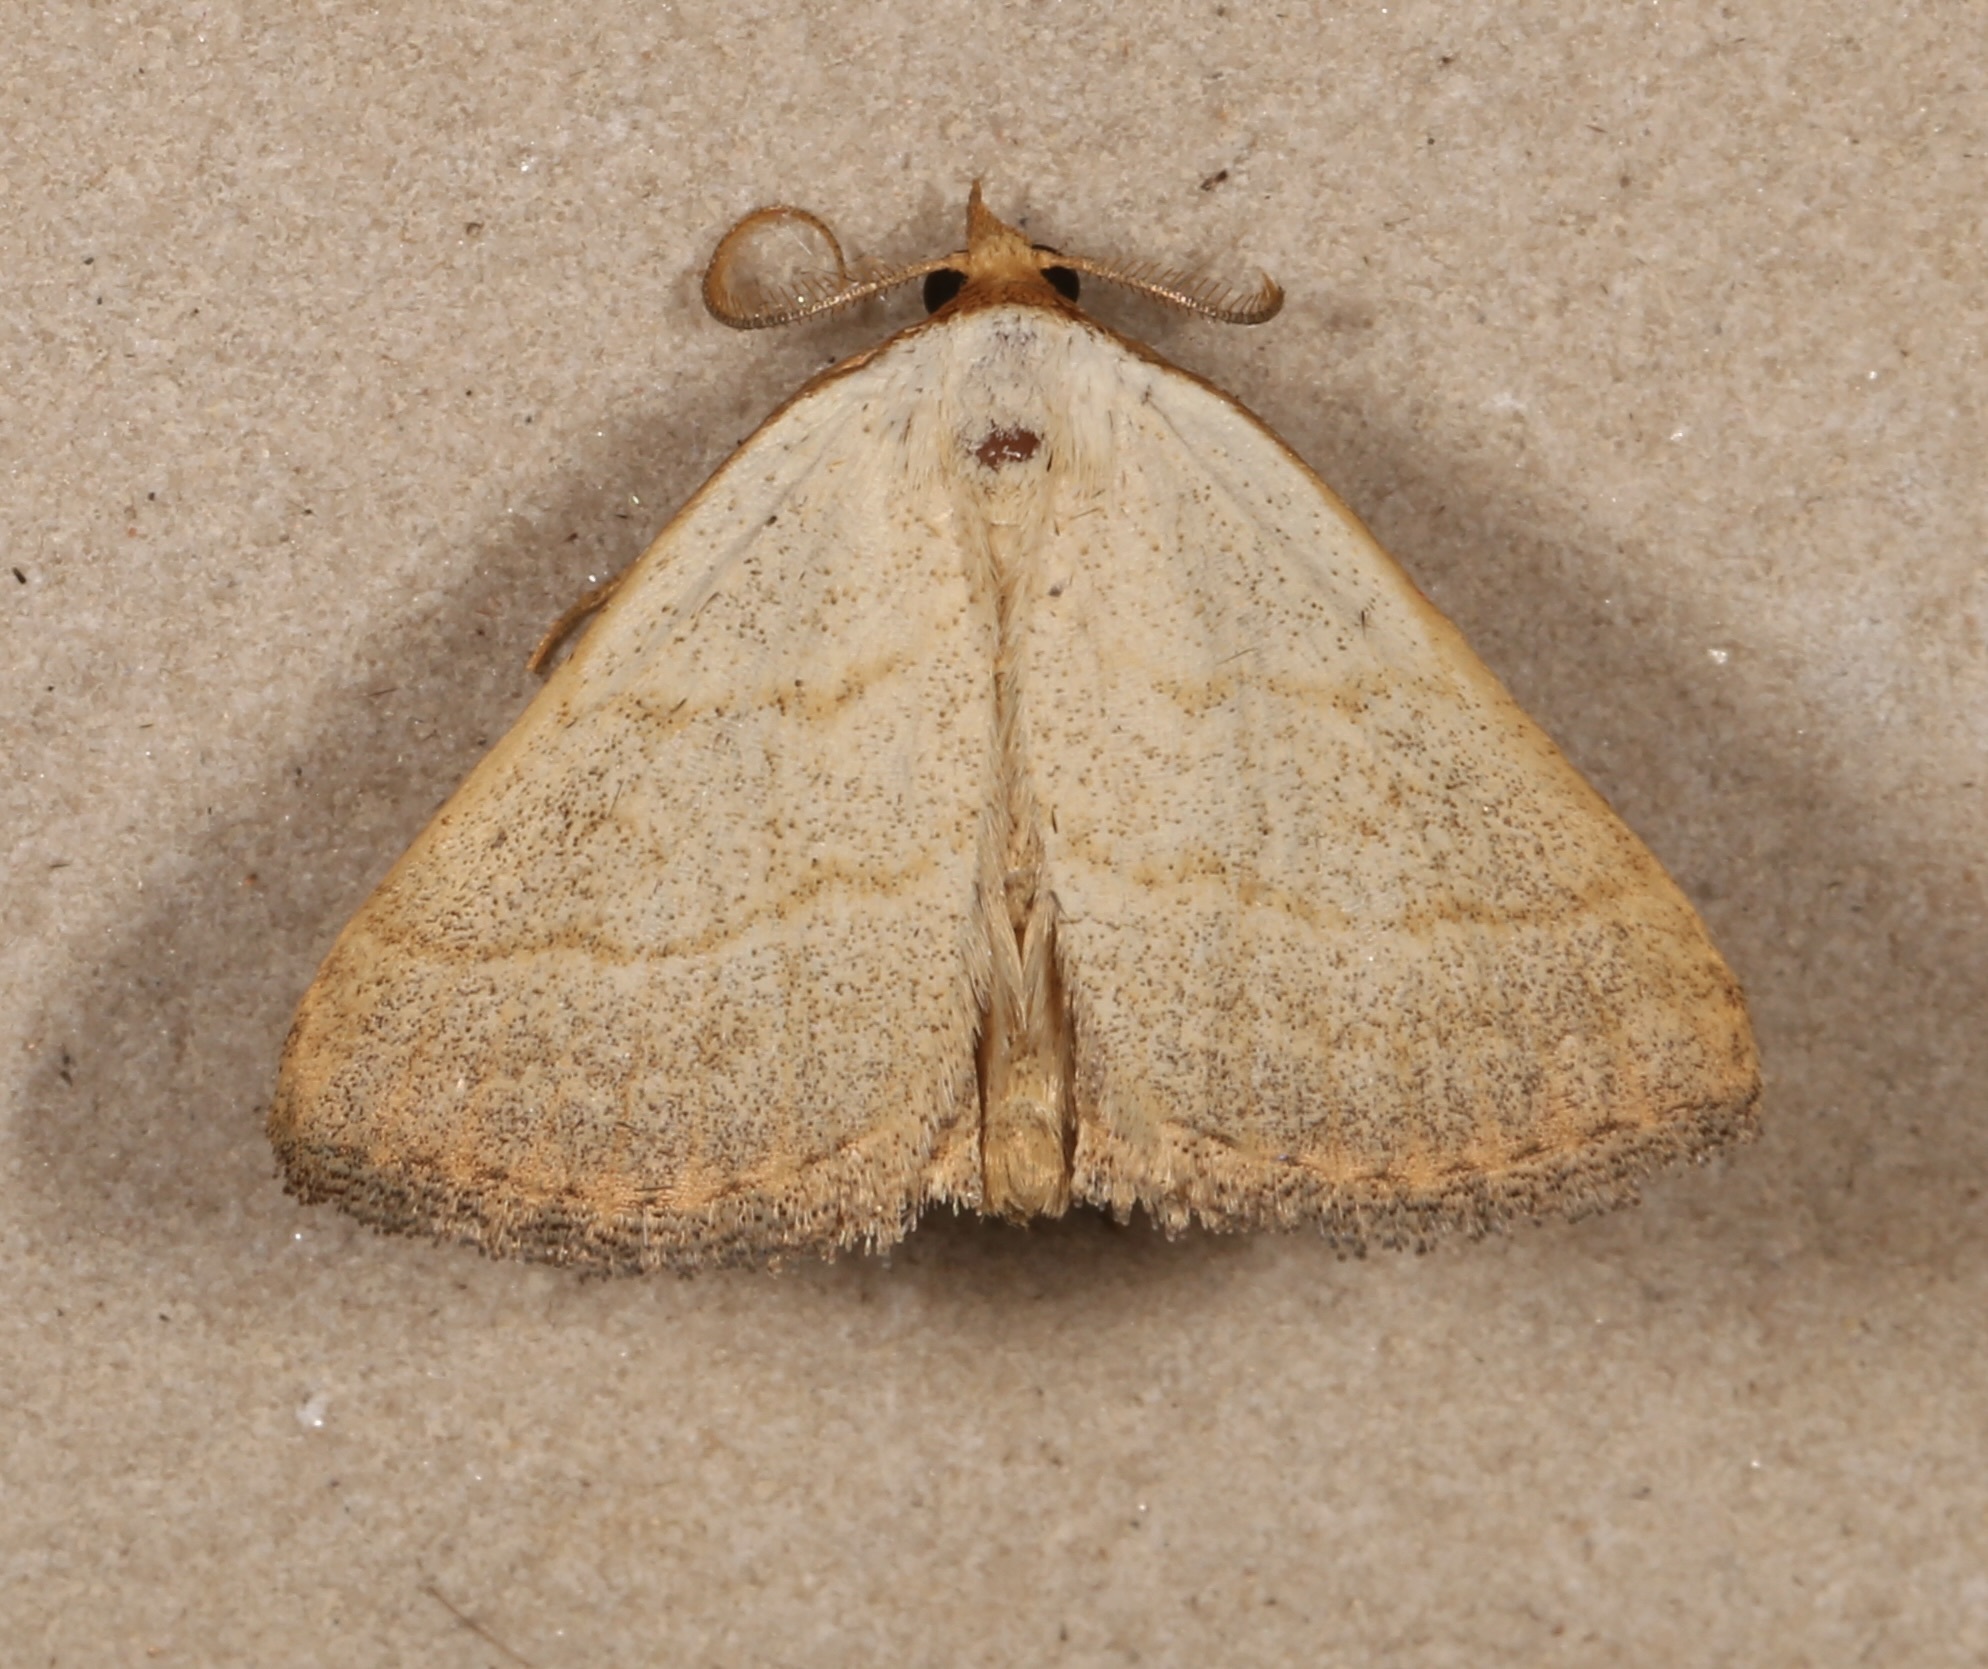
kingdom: Animalia
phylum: Arthropoda
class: Insecta
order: Lepidoptera
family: Erebidae
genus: Oxycilla
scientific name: Oxycilla tripla
